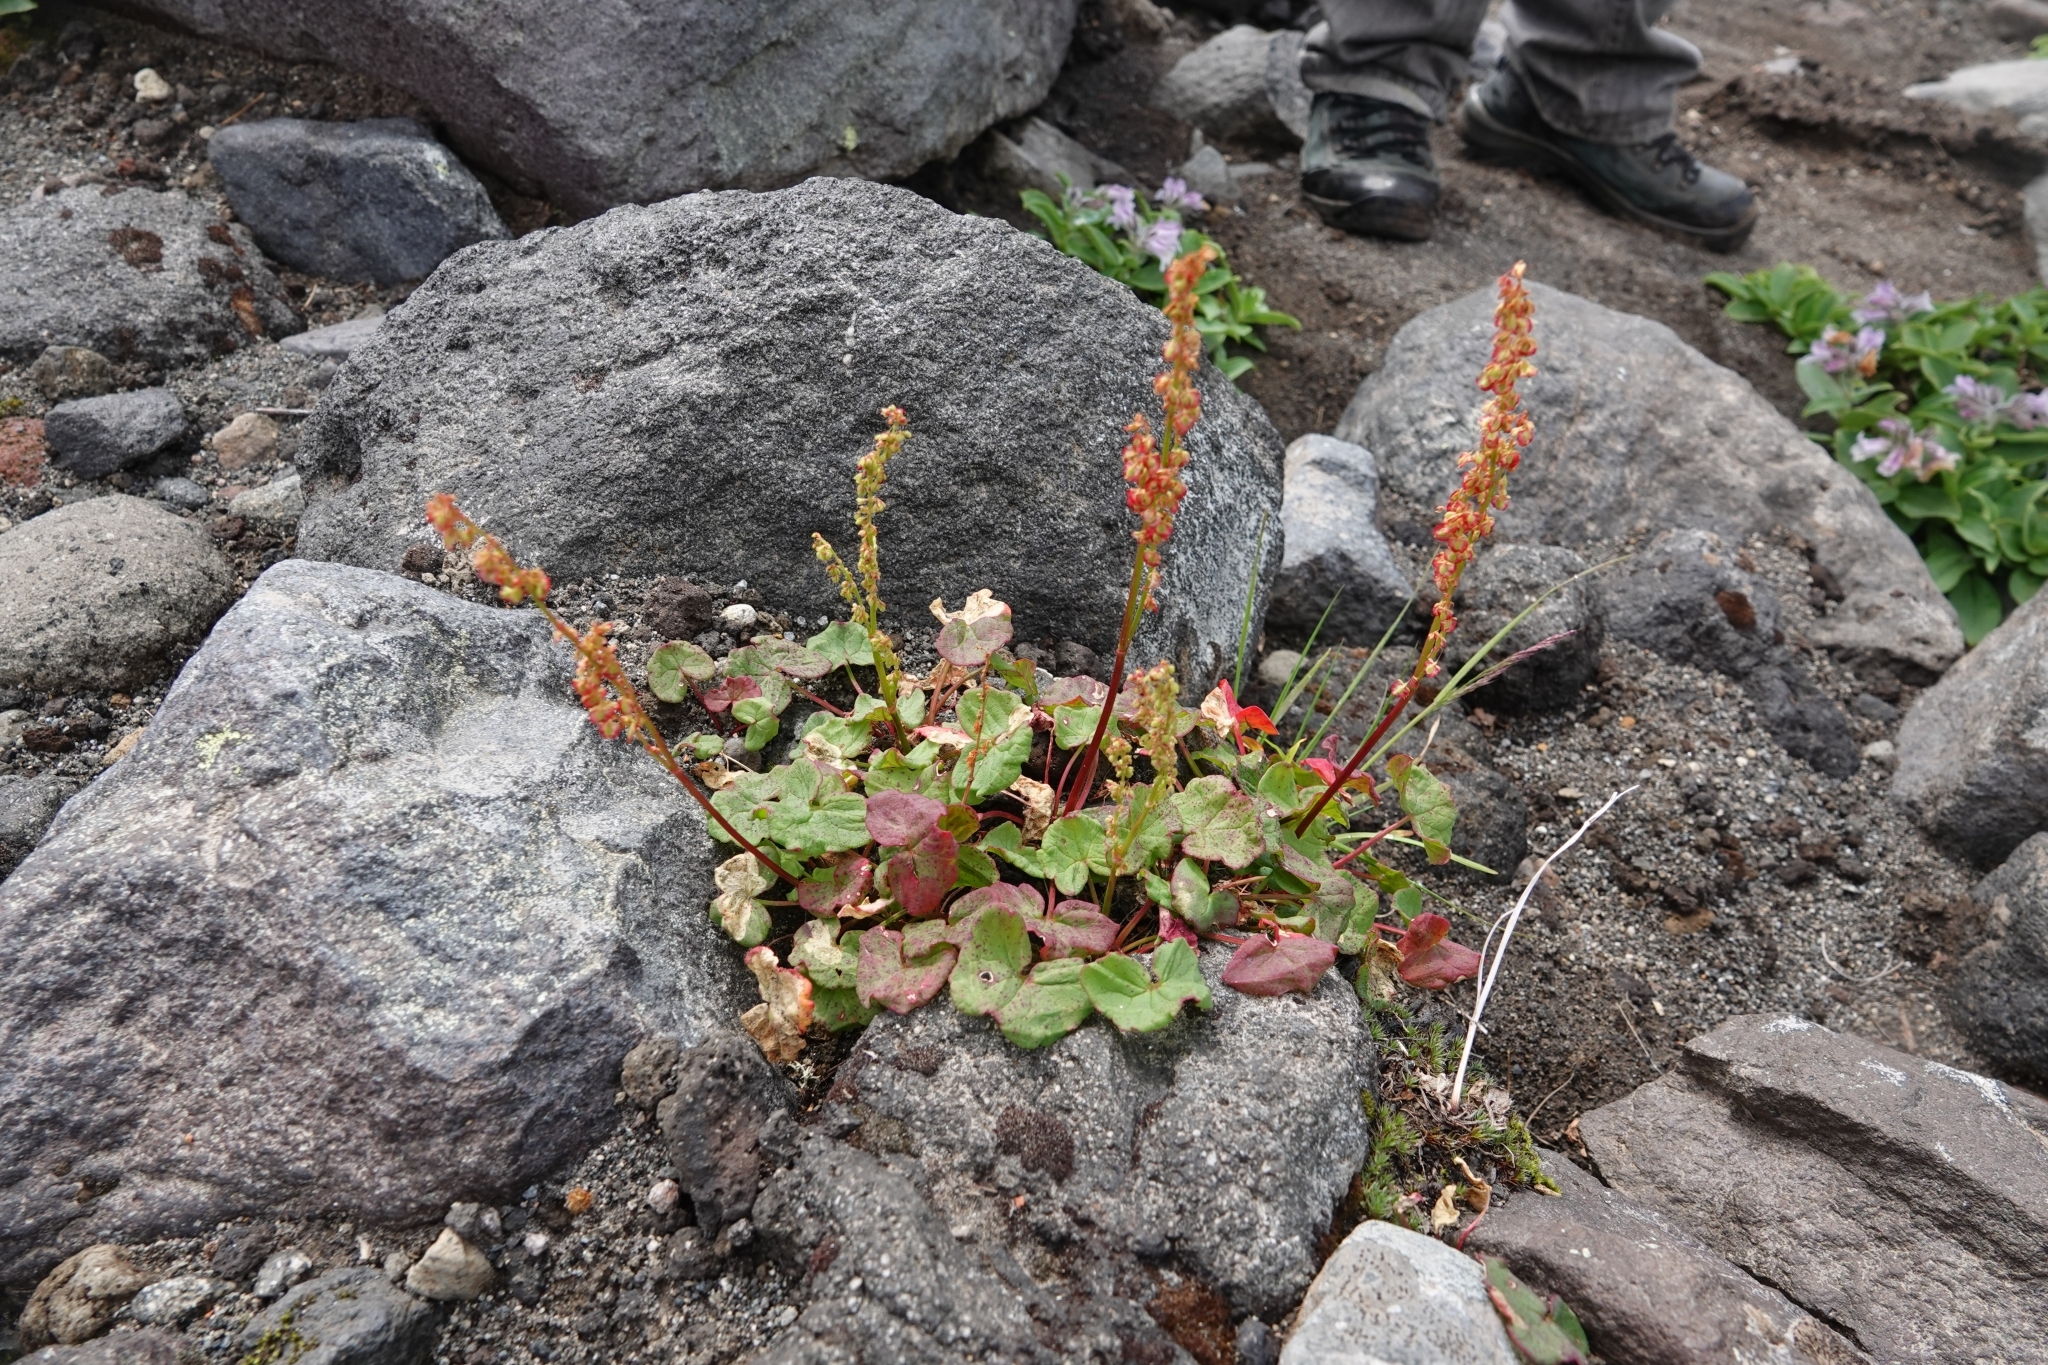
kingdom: Plantae
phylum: Tracheophyta
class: Magnoliopsida
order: Caryophyllales
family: Polygonaceae
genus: Oxyria
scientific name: Oxyria digyna
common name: Alpine mountain-sorrel
